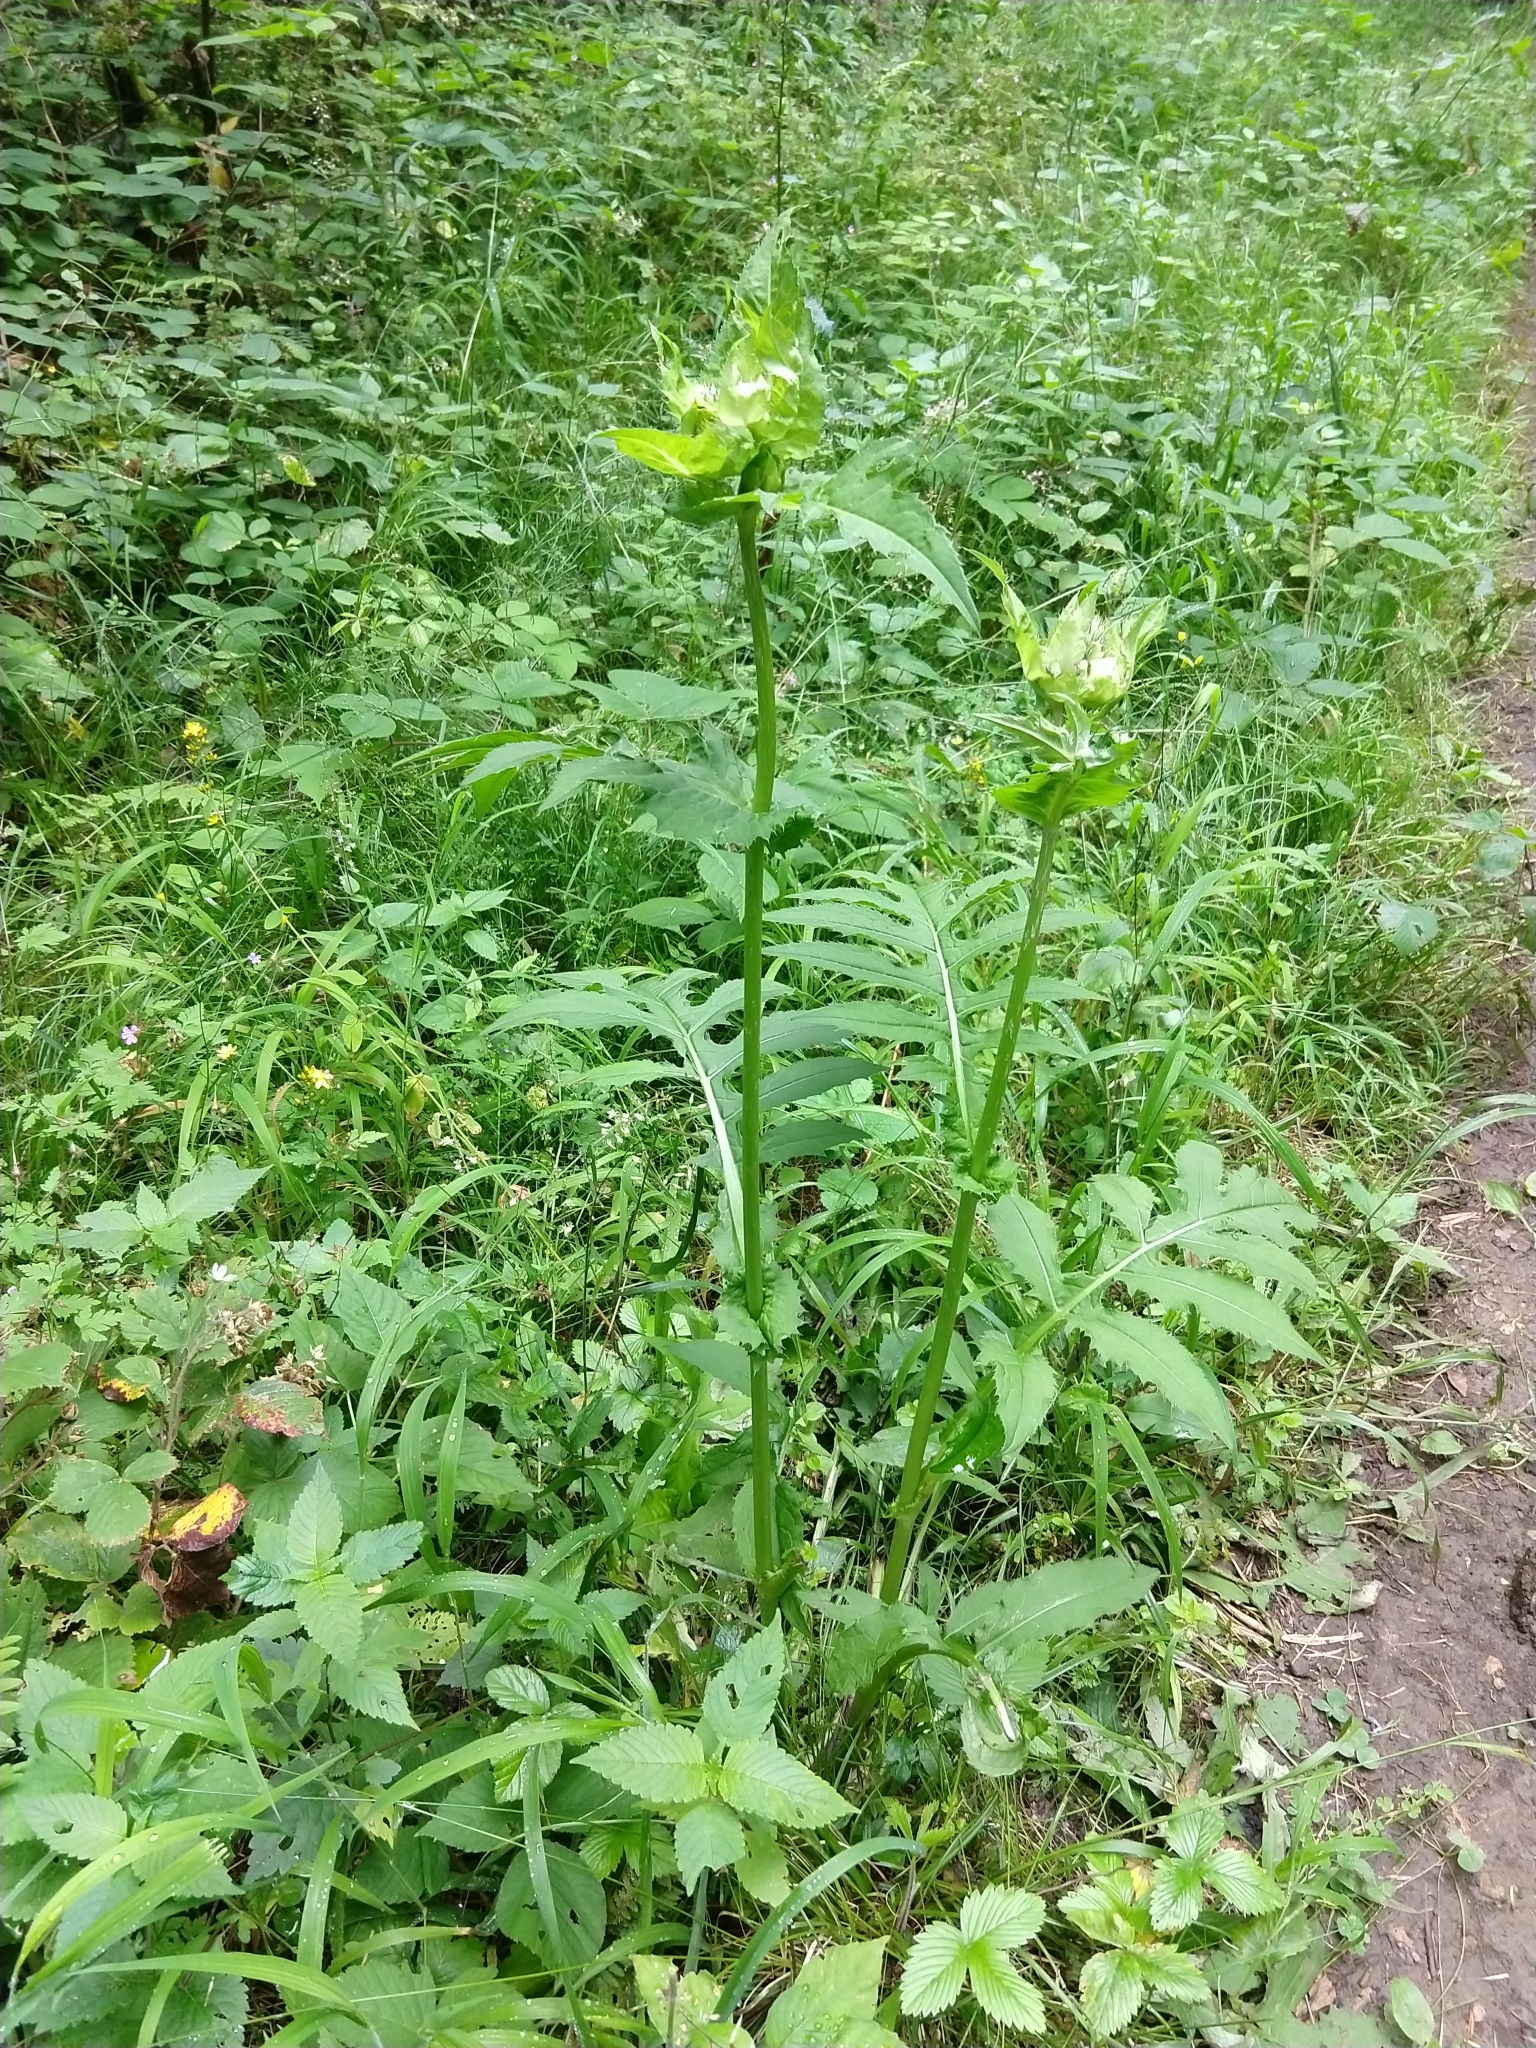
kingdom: Plantae
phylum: Tracheophyta
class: Magnoliopsida
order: Asterales
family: Asteraceae
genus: Cirsium
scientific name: Cirsium oleraceum
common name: Cabbage thistle
